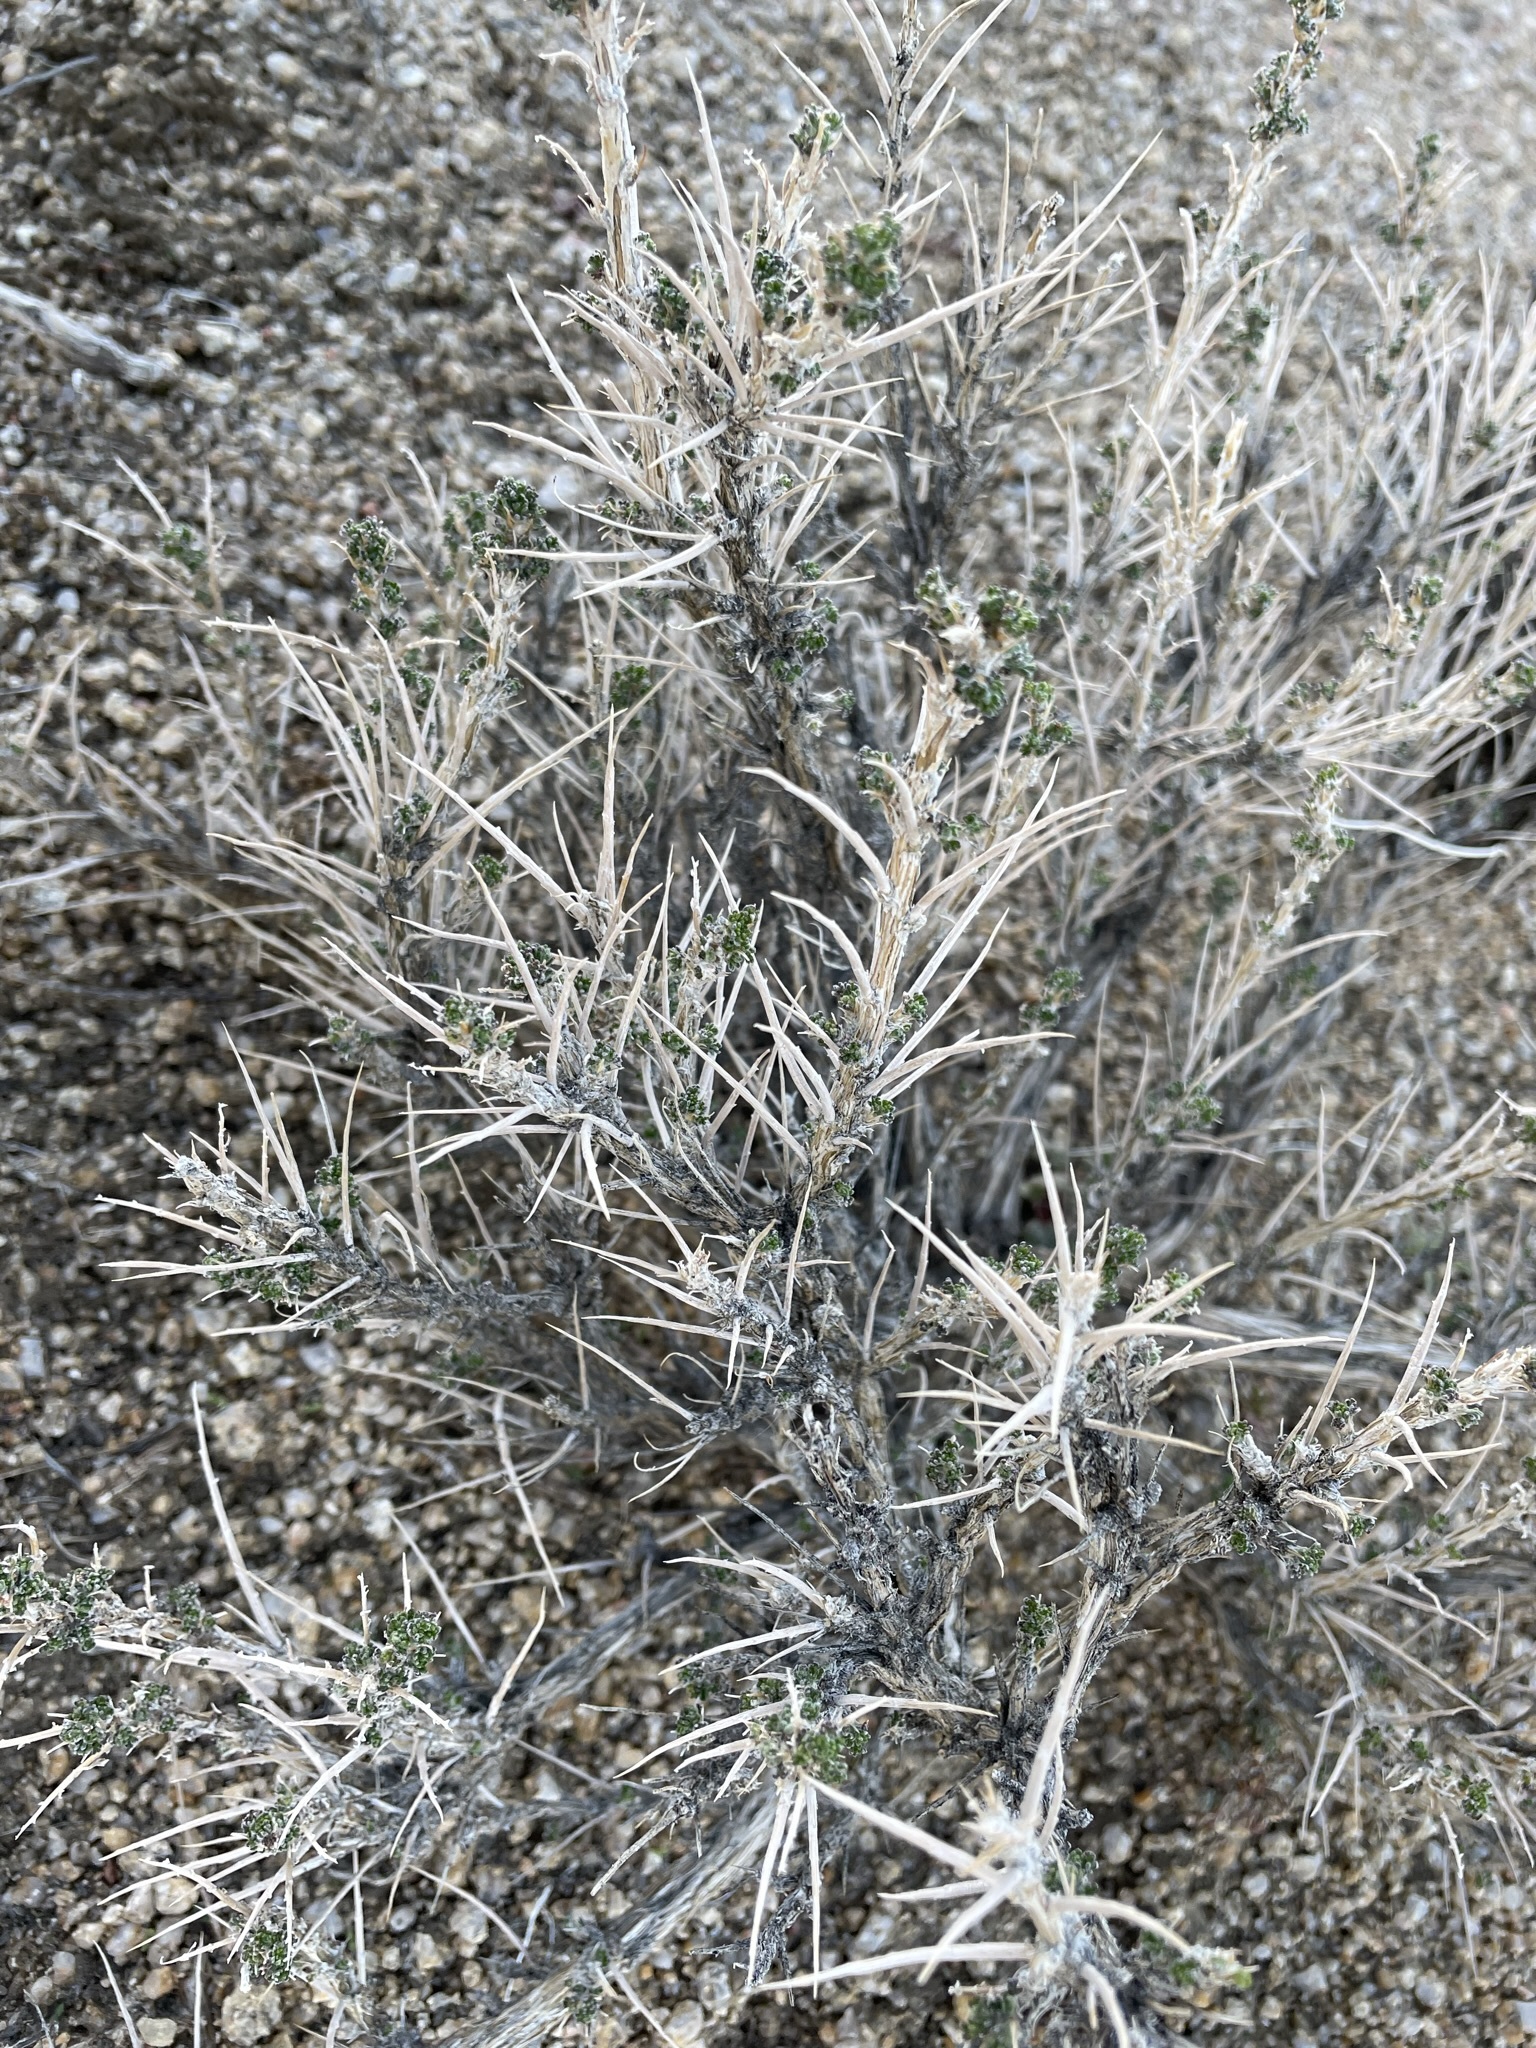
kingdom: Plantae
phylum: Tracheophyta
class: Magnoliopsida
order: Asterales
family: Asteraceae
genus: Artemisia
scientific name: Artemisia spinescens
